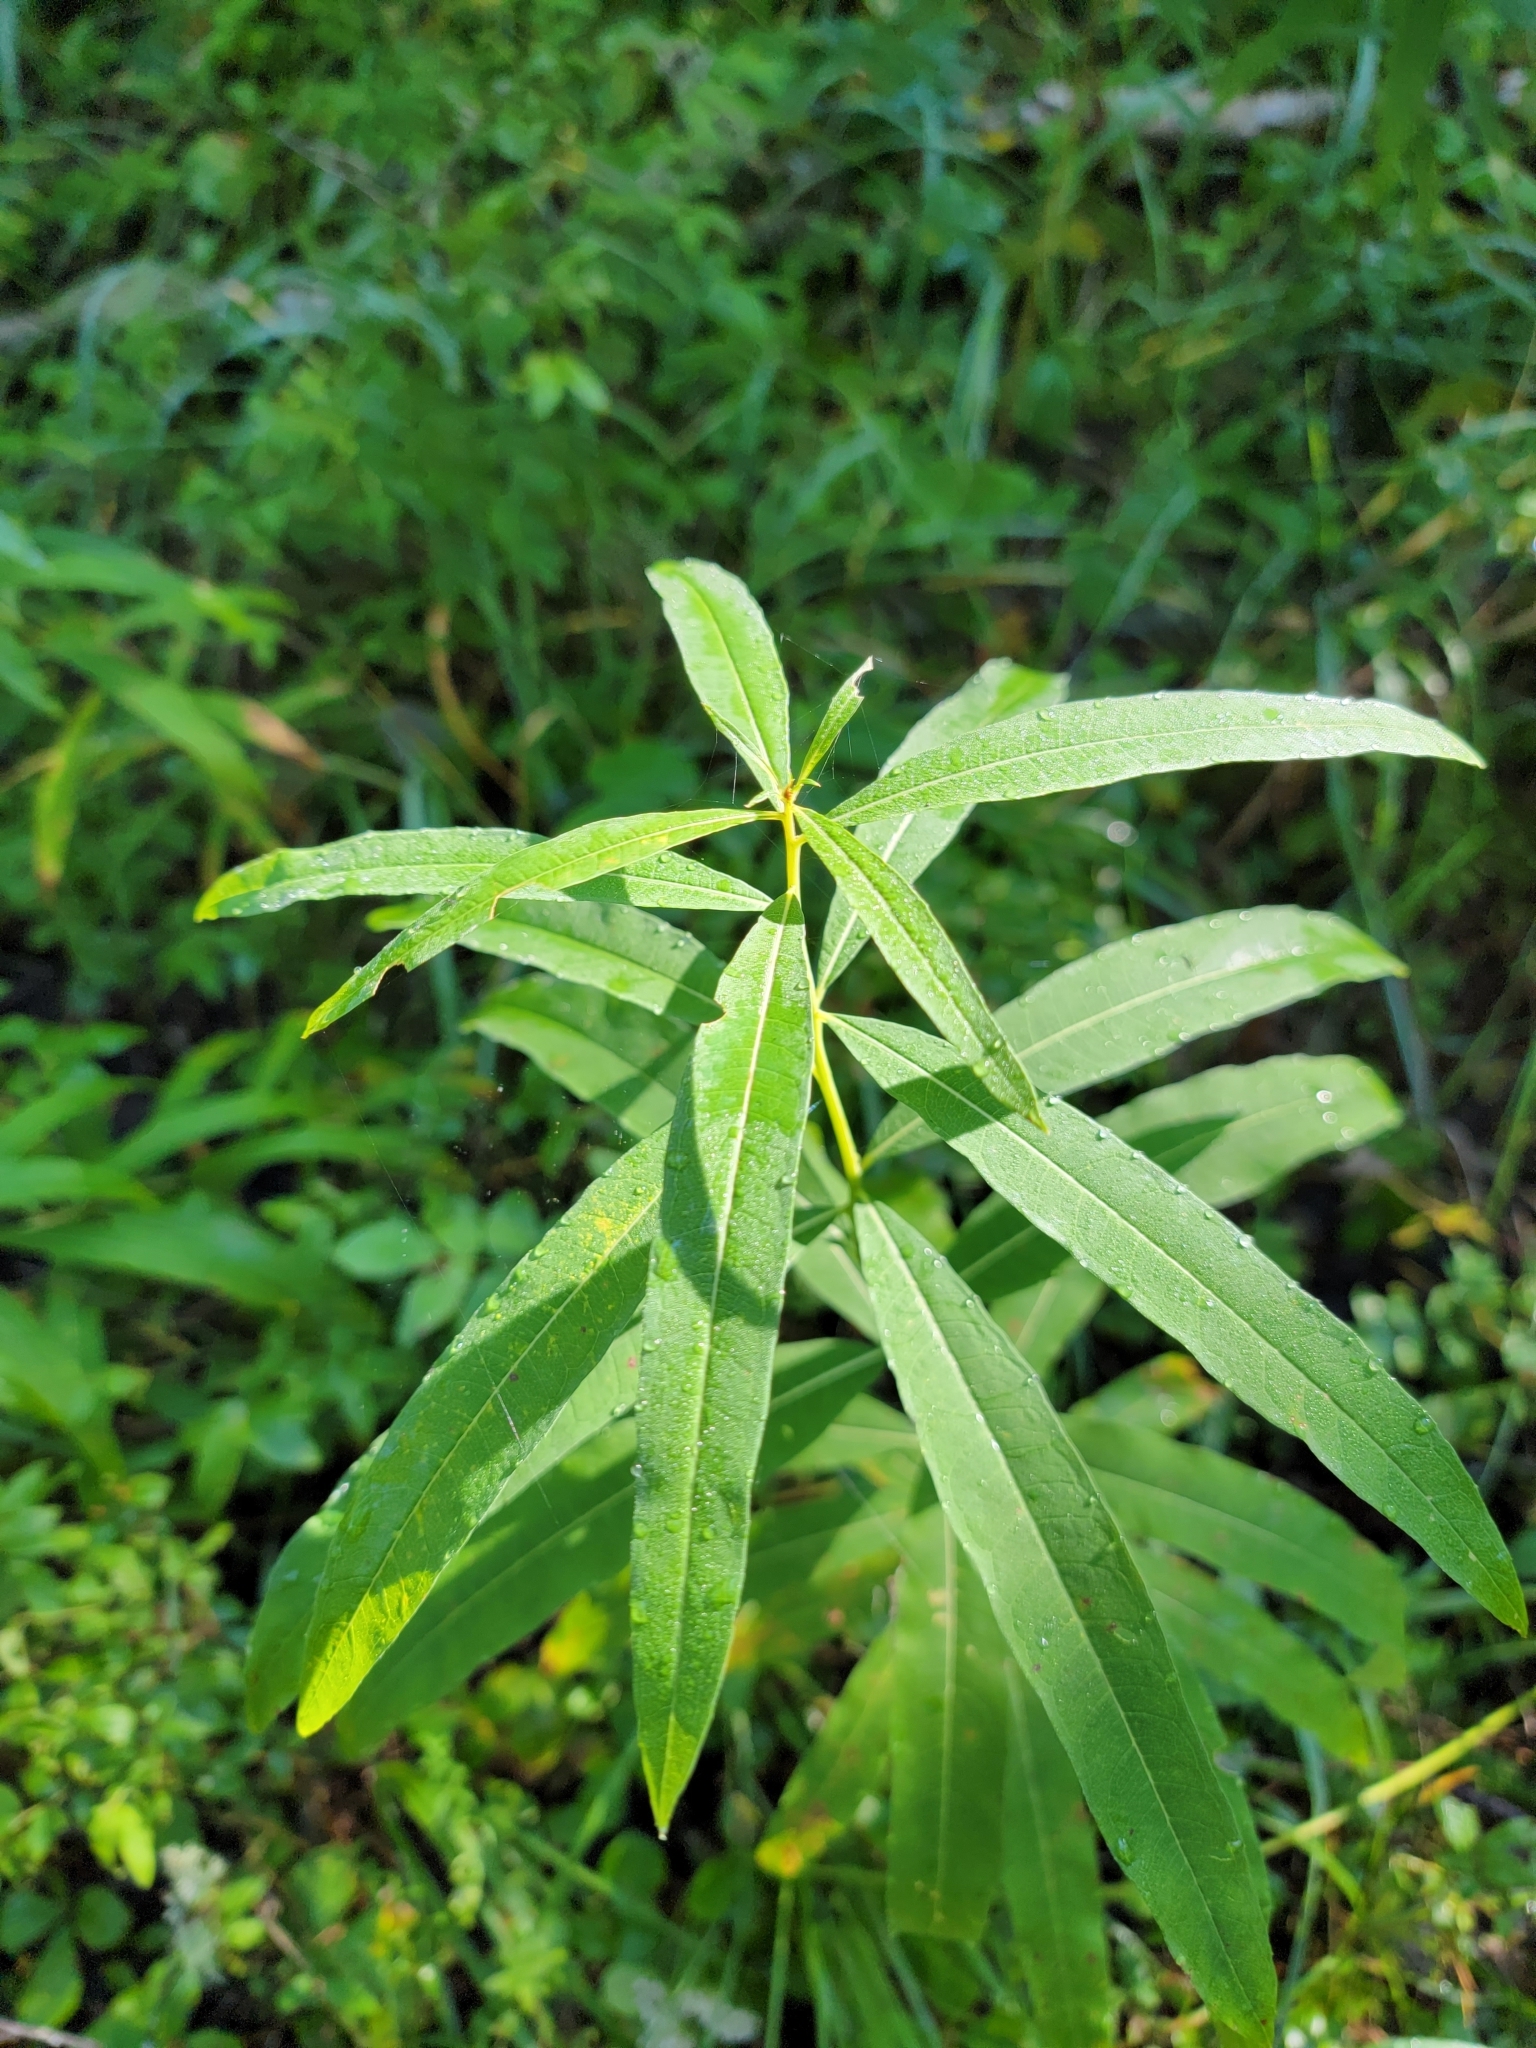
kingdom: Plantae
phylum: Tracheophyta
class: Magnoliopsida
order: Myrtales
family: Onagraceae
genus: Chamaenerion
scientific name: Chamaenerion angustifolium
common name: Fireweed
